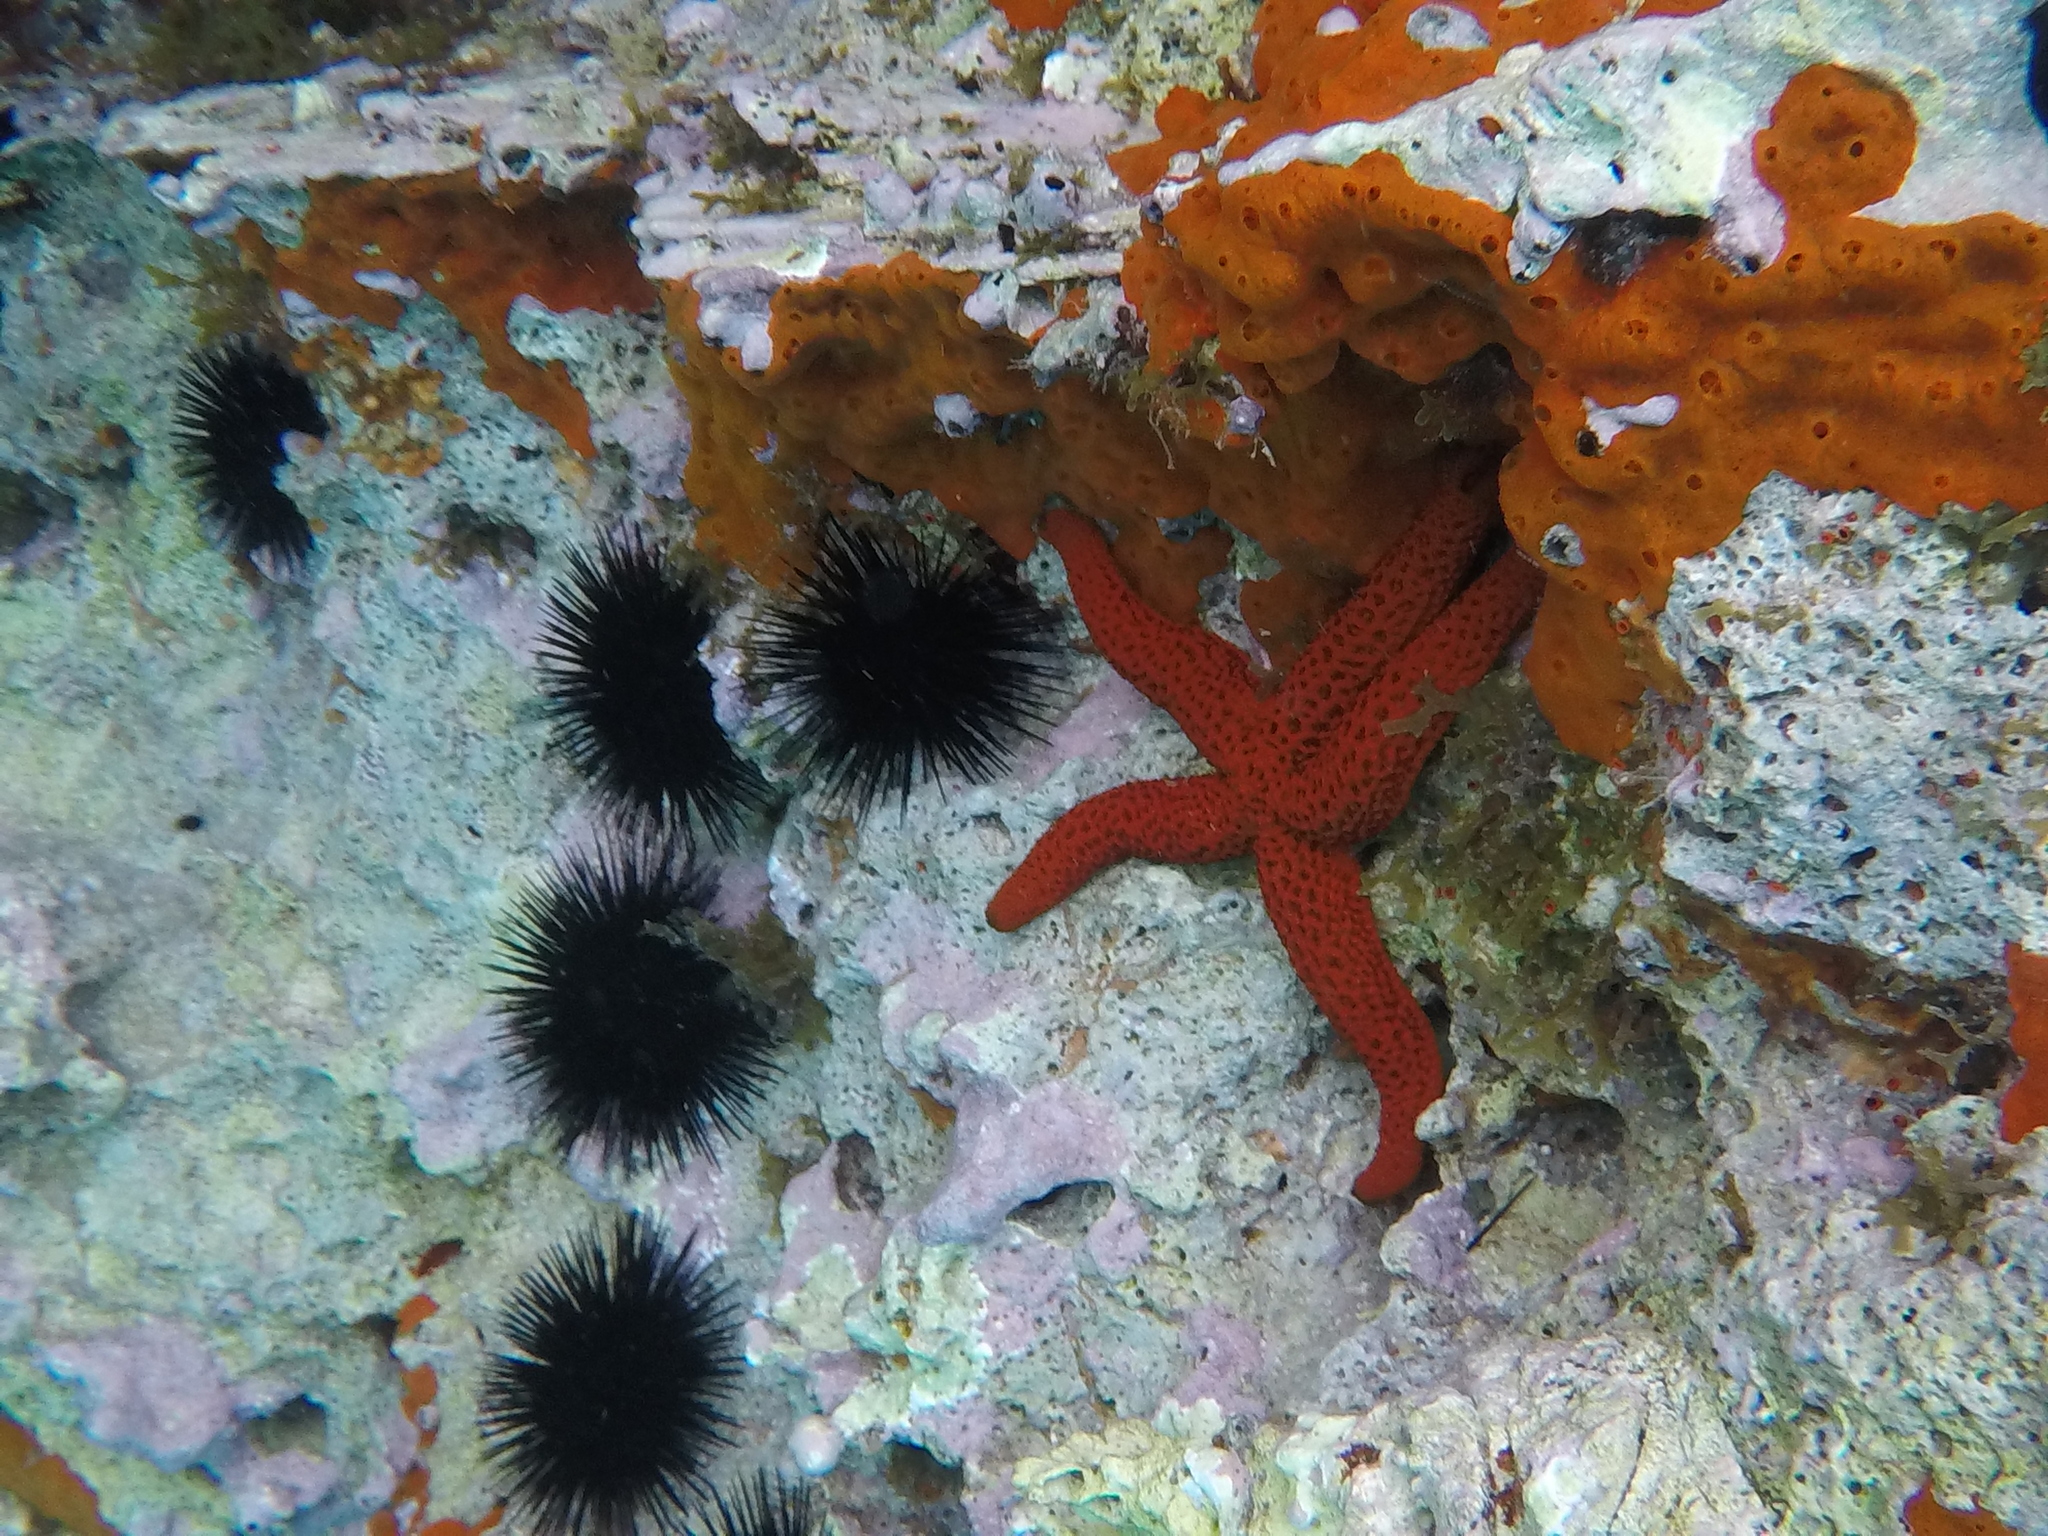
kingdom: Animalia
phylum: Echinodermata
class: Asteroidea
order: Spinulosida
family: Echinasteridae
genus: Echinaster
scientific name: Echinaster sepositus
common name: Red starfish
